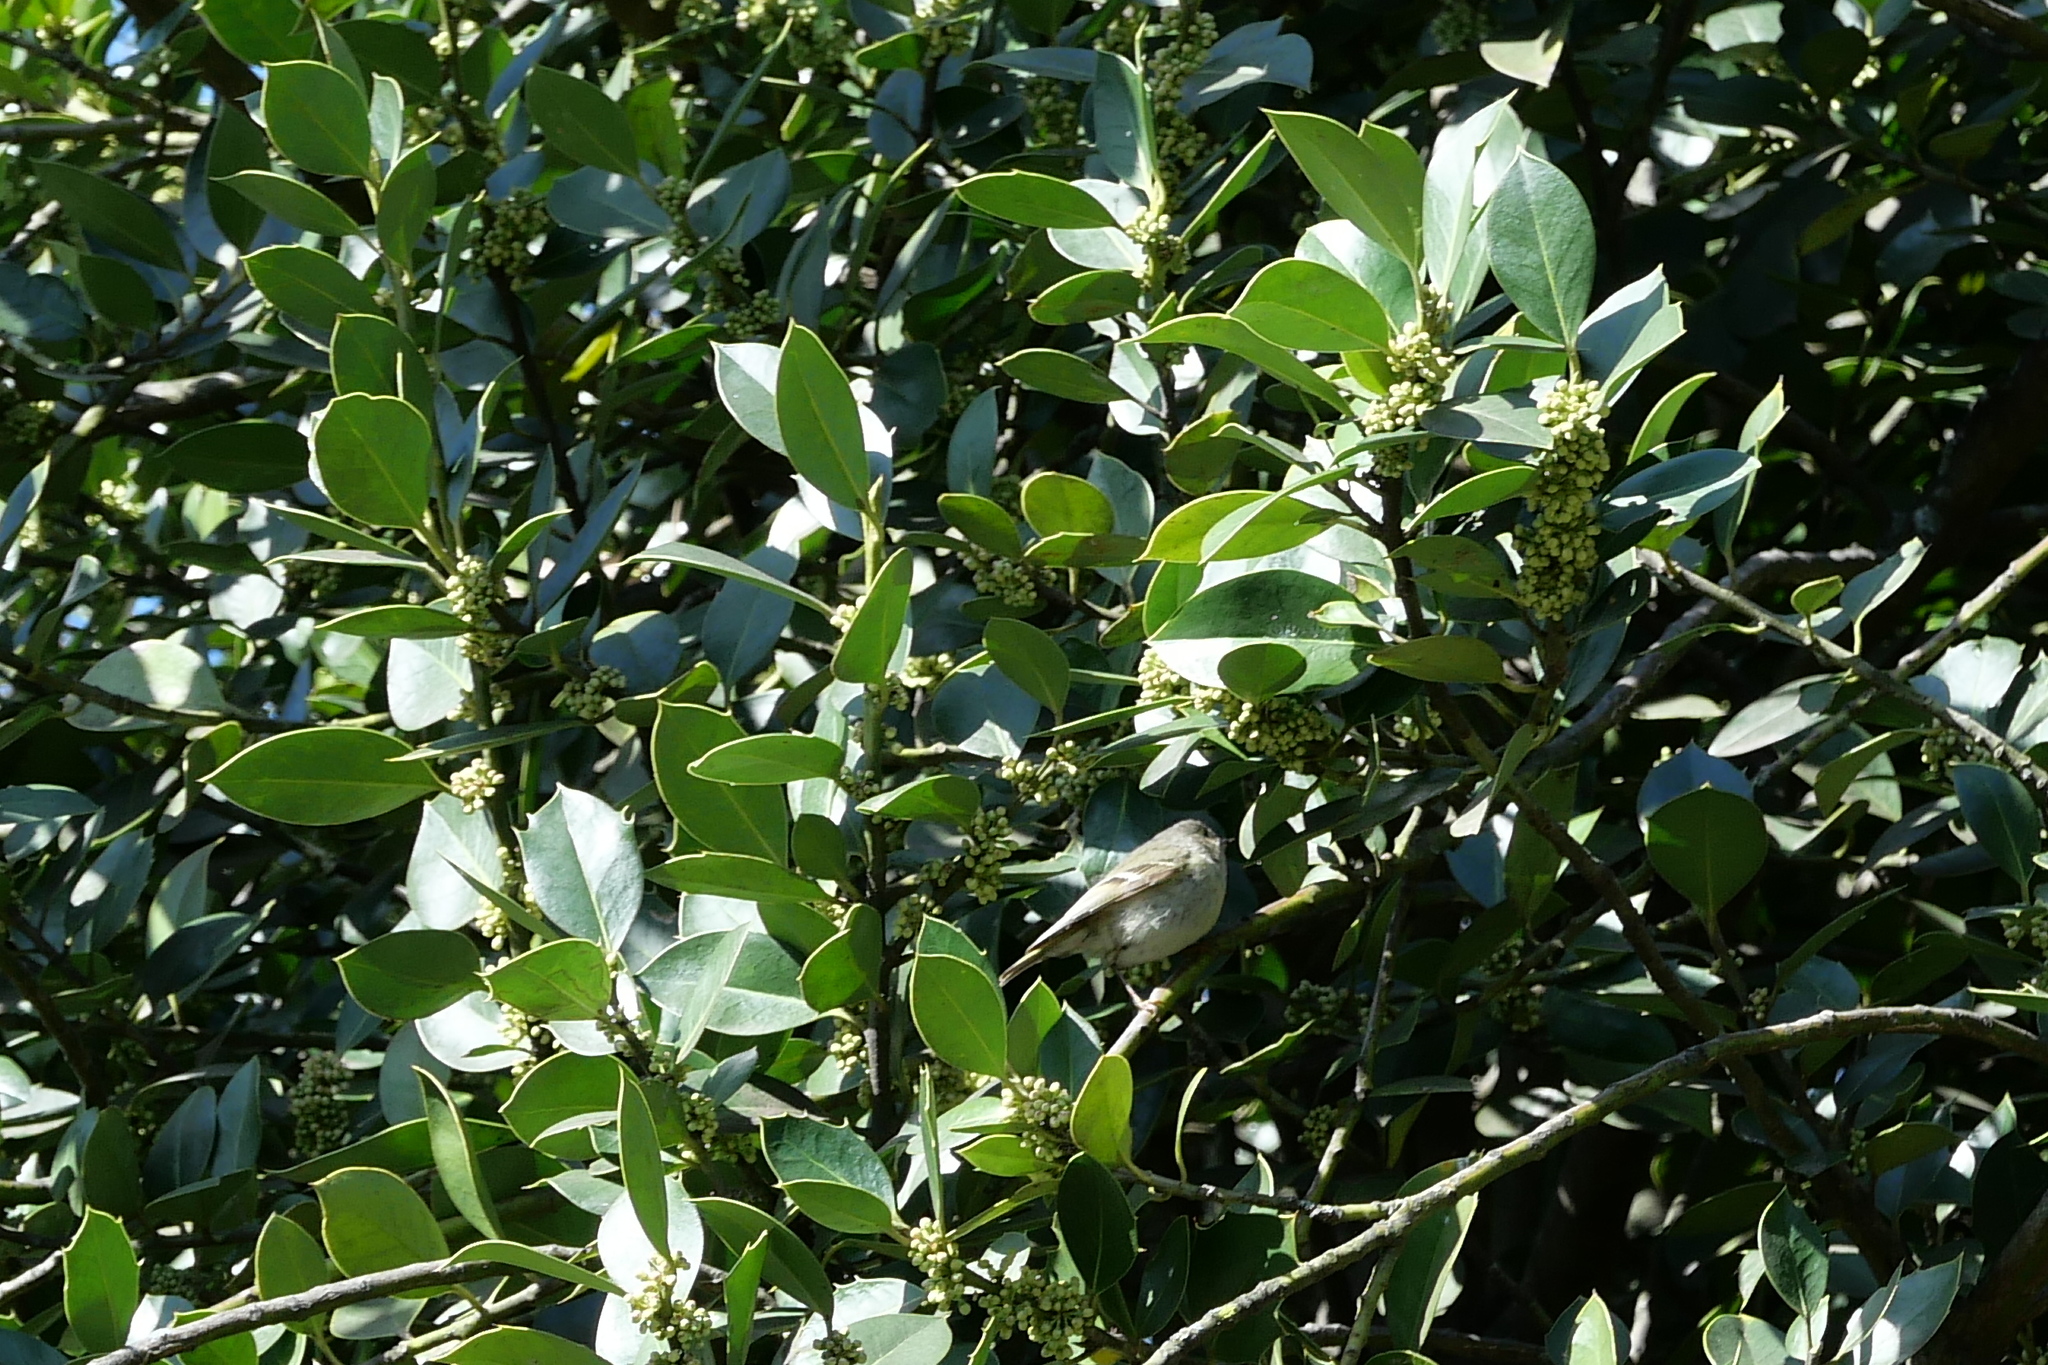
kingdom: Animalia
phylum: Chordata
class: Aves
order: Passeriformes
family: Regulidae
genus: Regulus
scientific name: Regulus calendula
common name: Ruby-crowned kinglet
